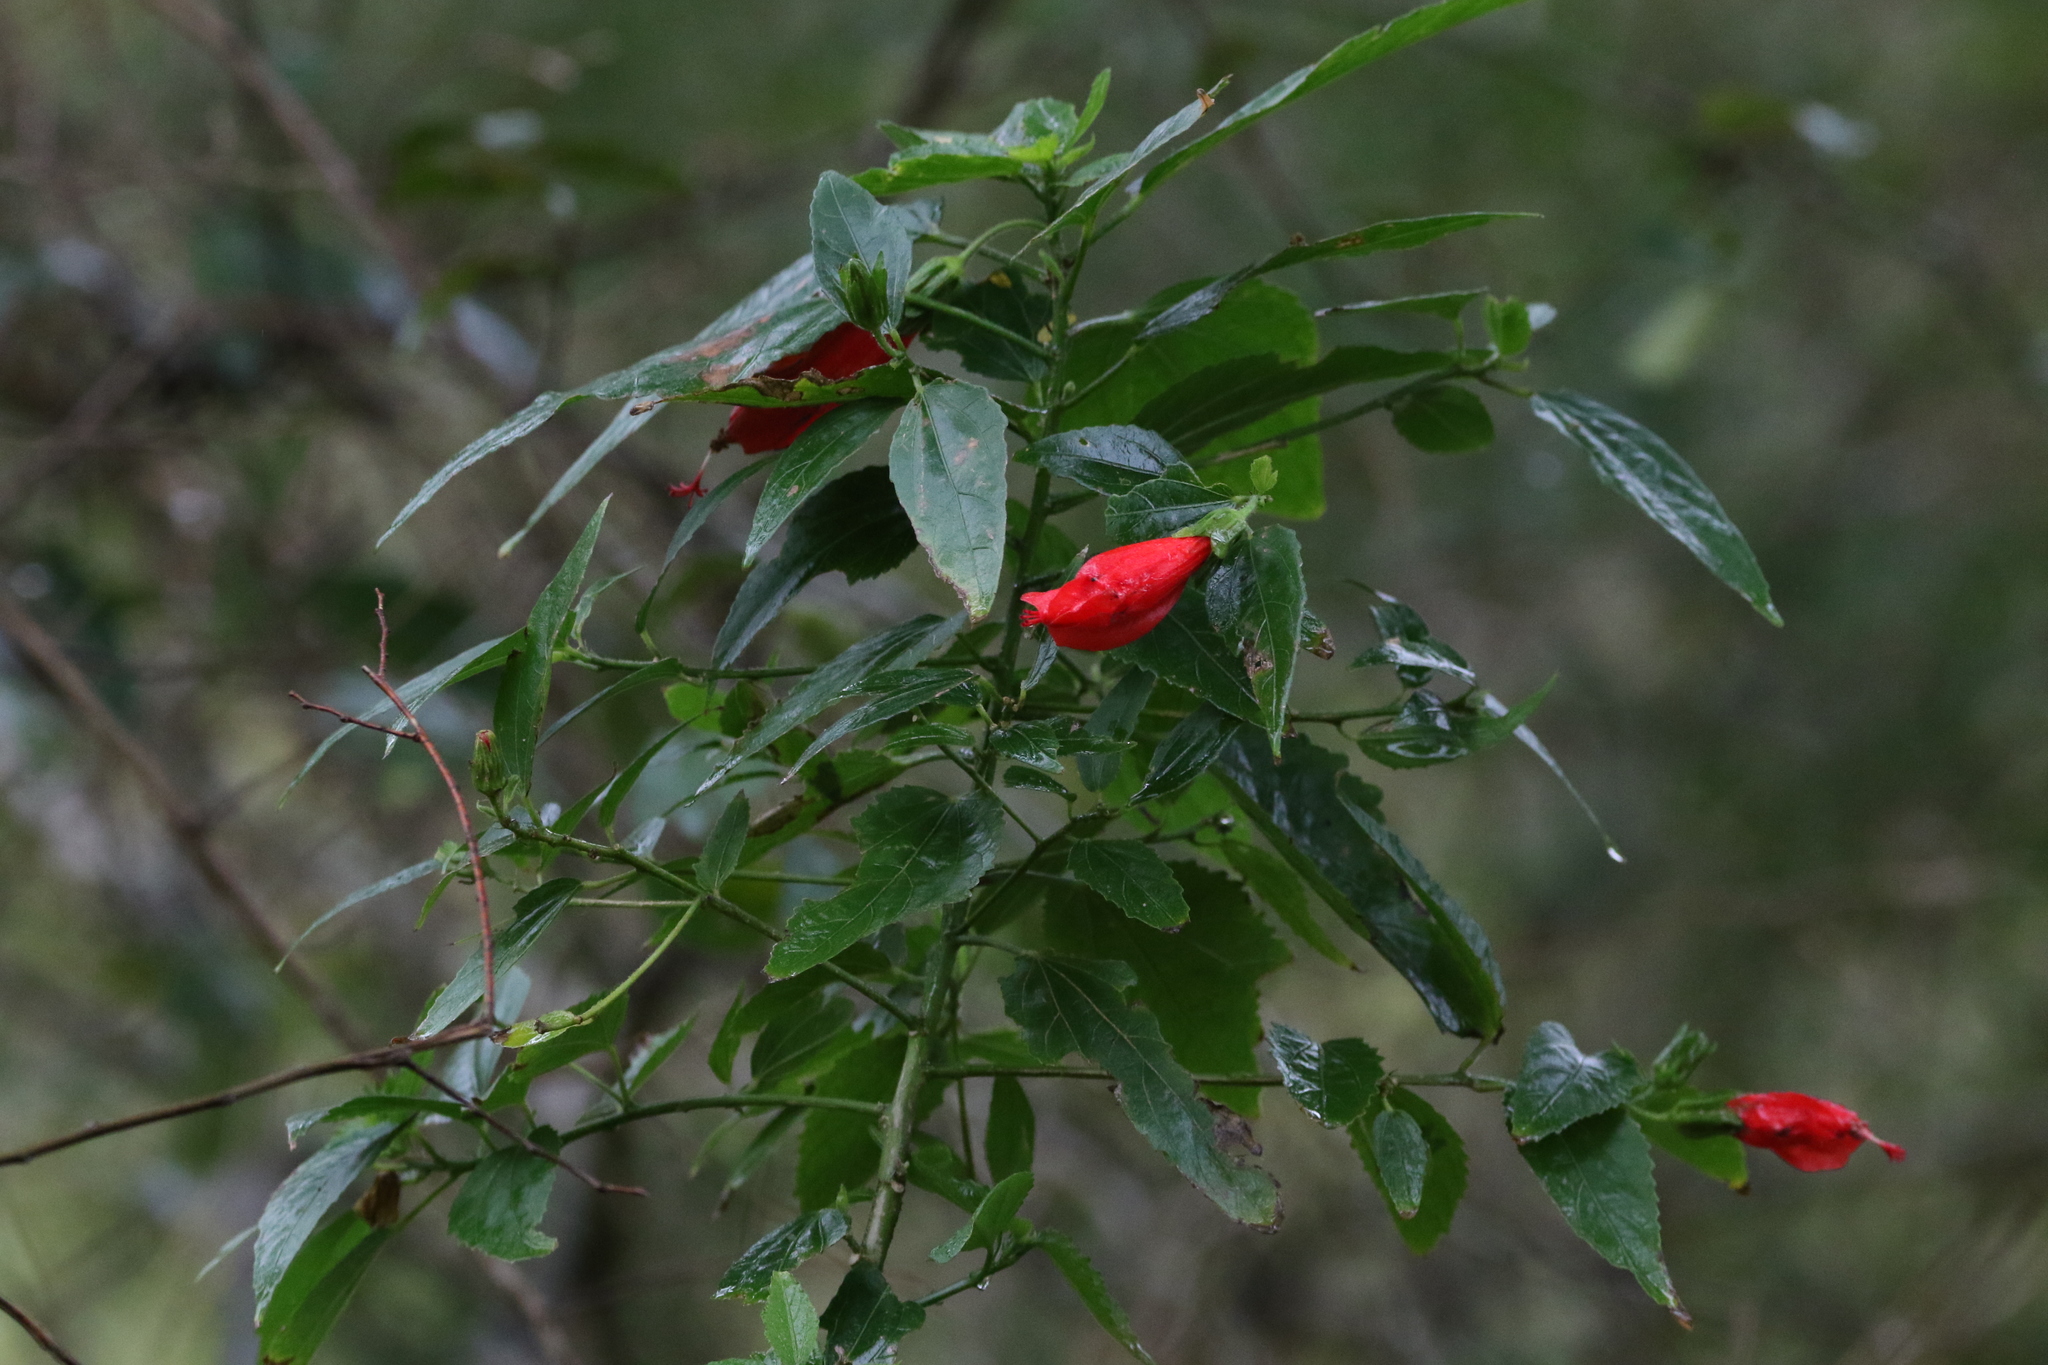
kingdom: Plantae
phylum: Tracheophyta
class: Magnoliopsida
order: Malvales
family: Malvaceae
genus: Malvaviscus
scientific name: Malvaviscus penduliflorus
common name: Mazapan
